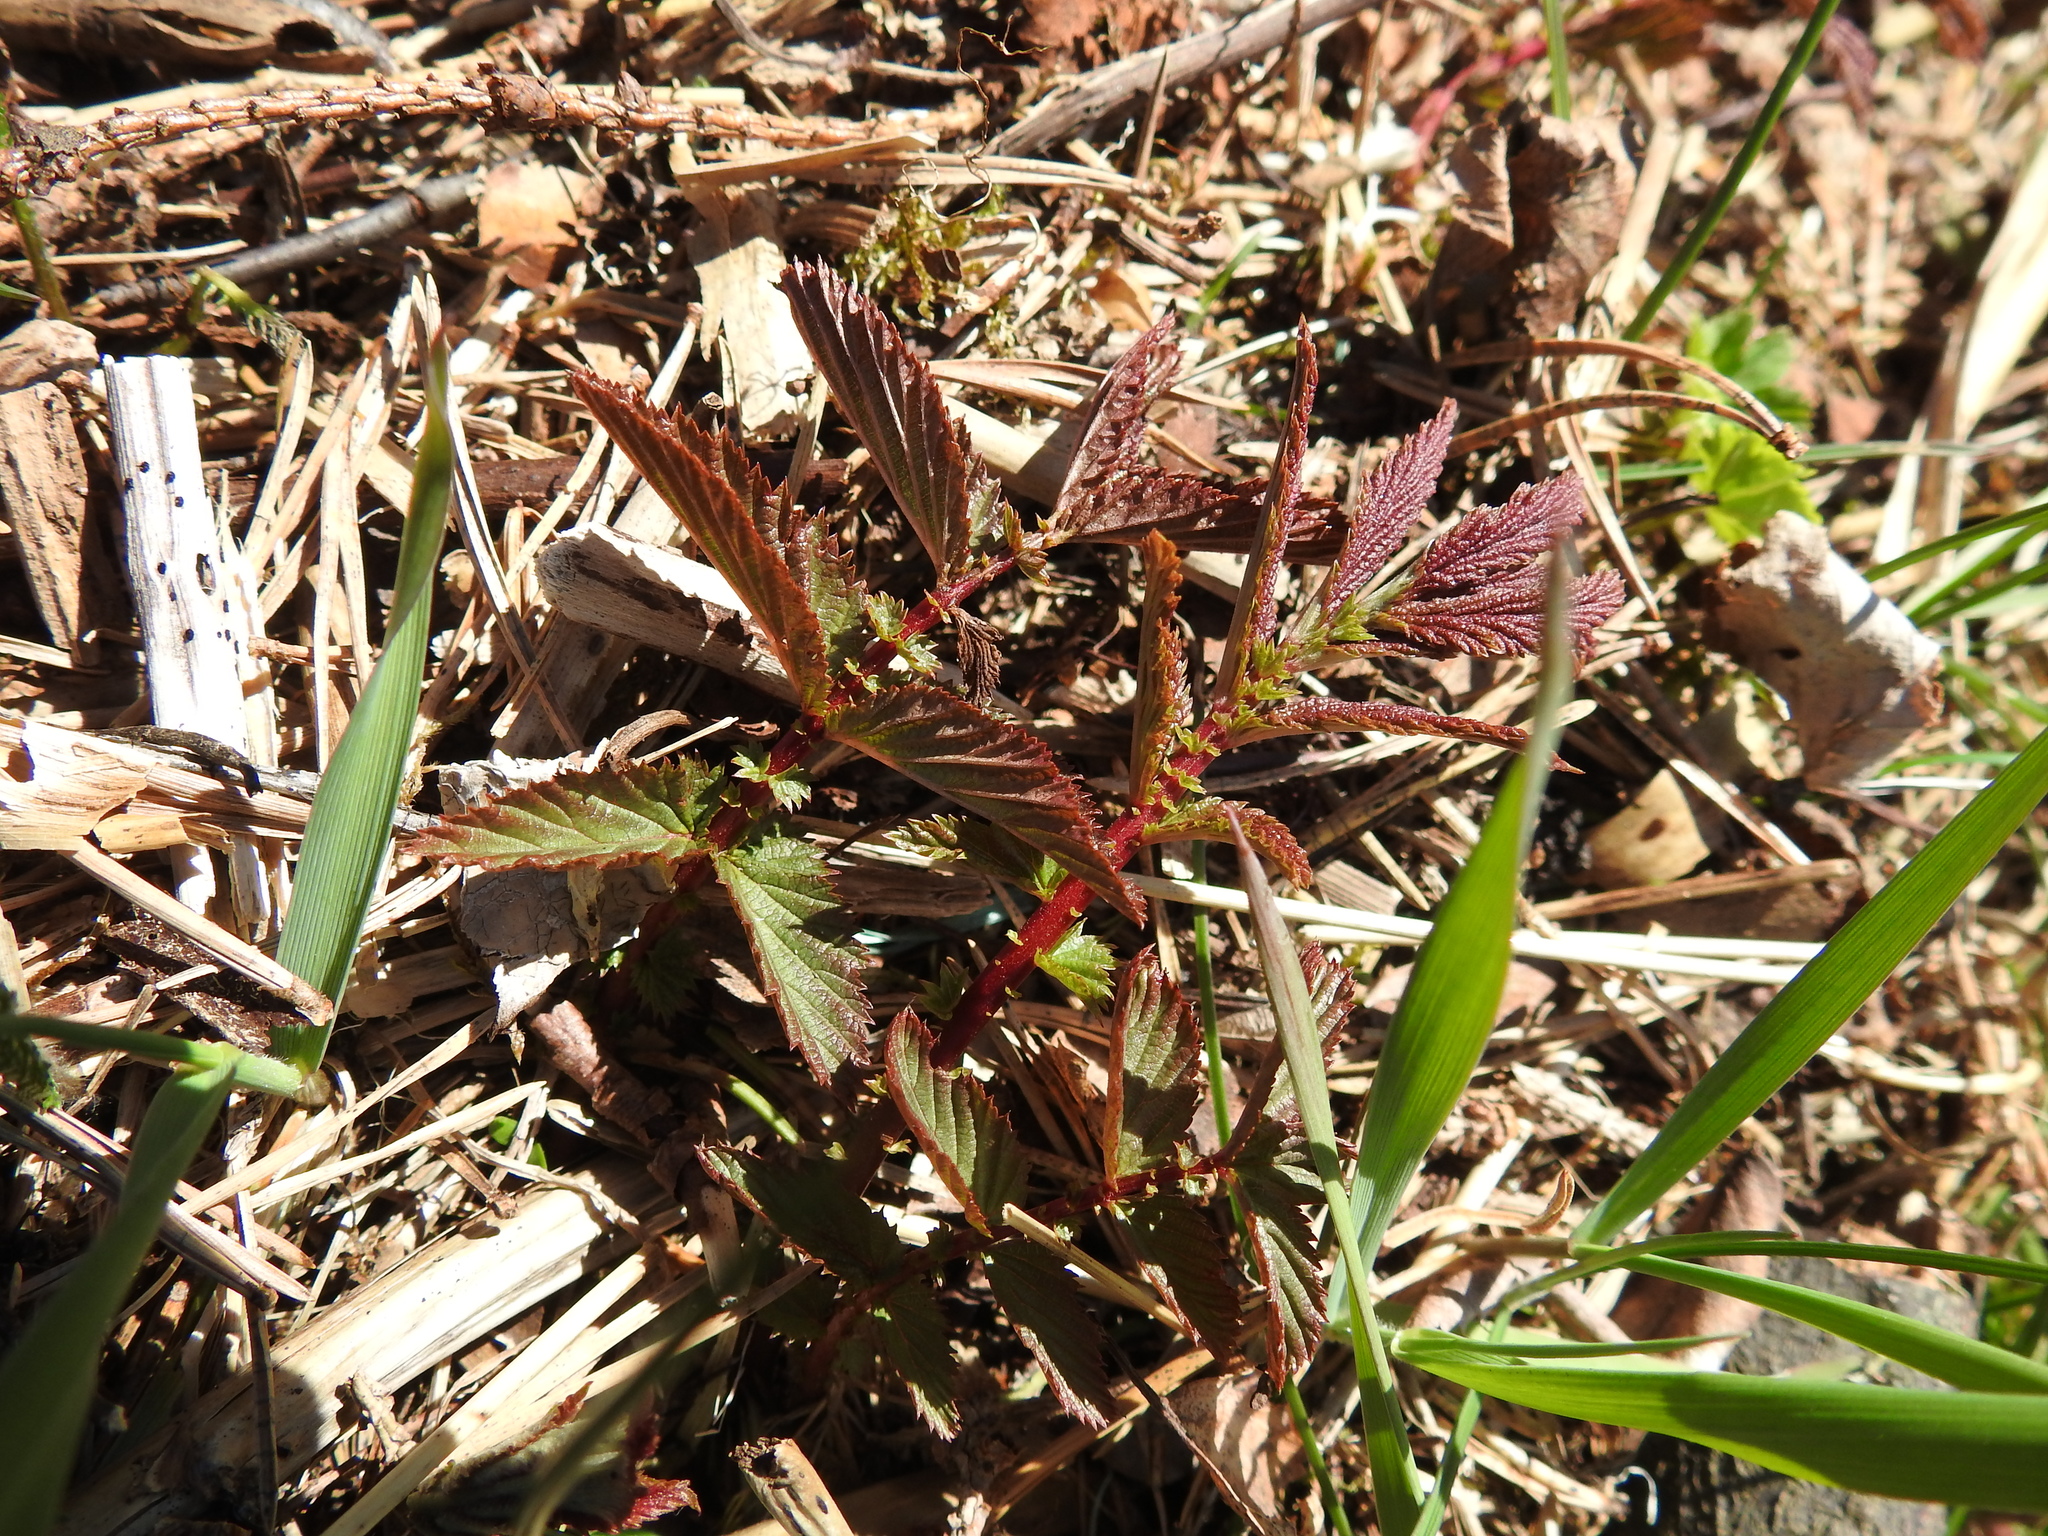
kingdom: Plantae
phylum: Tracheophyta
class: Magnoliopsida
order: Rosales
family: Rosaceae
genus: Filipendula
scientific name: Filipendula ulmaria
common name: Meadowsweet
